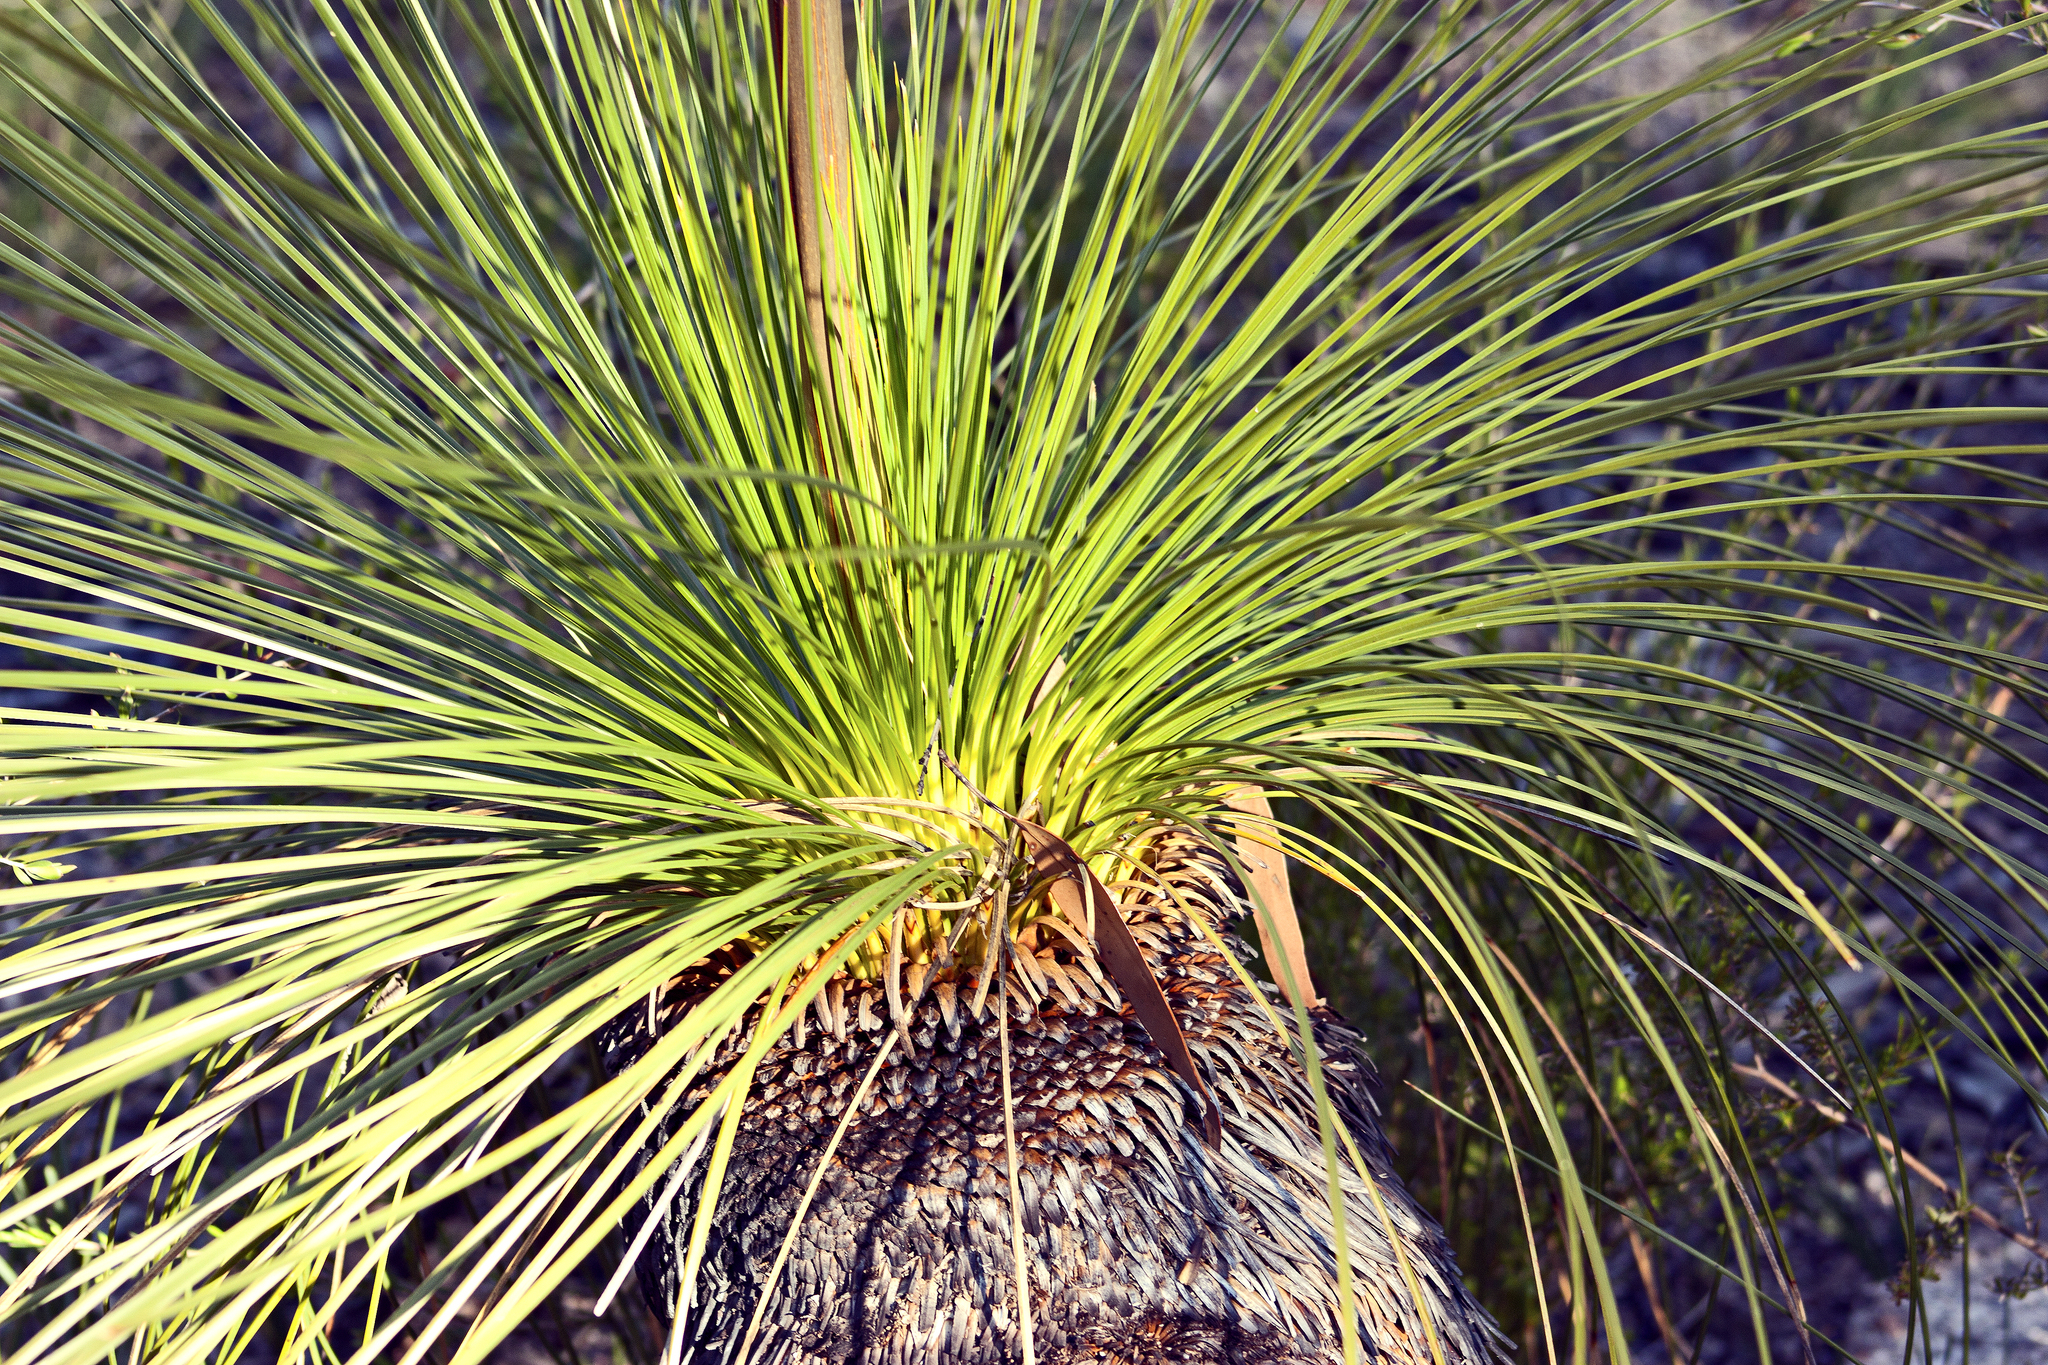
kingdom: Plantae
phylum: Tracheophyta
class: Liliopsida
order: Asparagales
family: Asphodelaceae
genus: Xanthorrhoea
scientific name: Xanthorrhoea johnsonii
